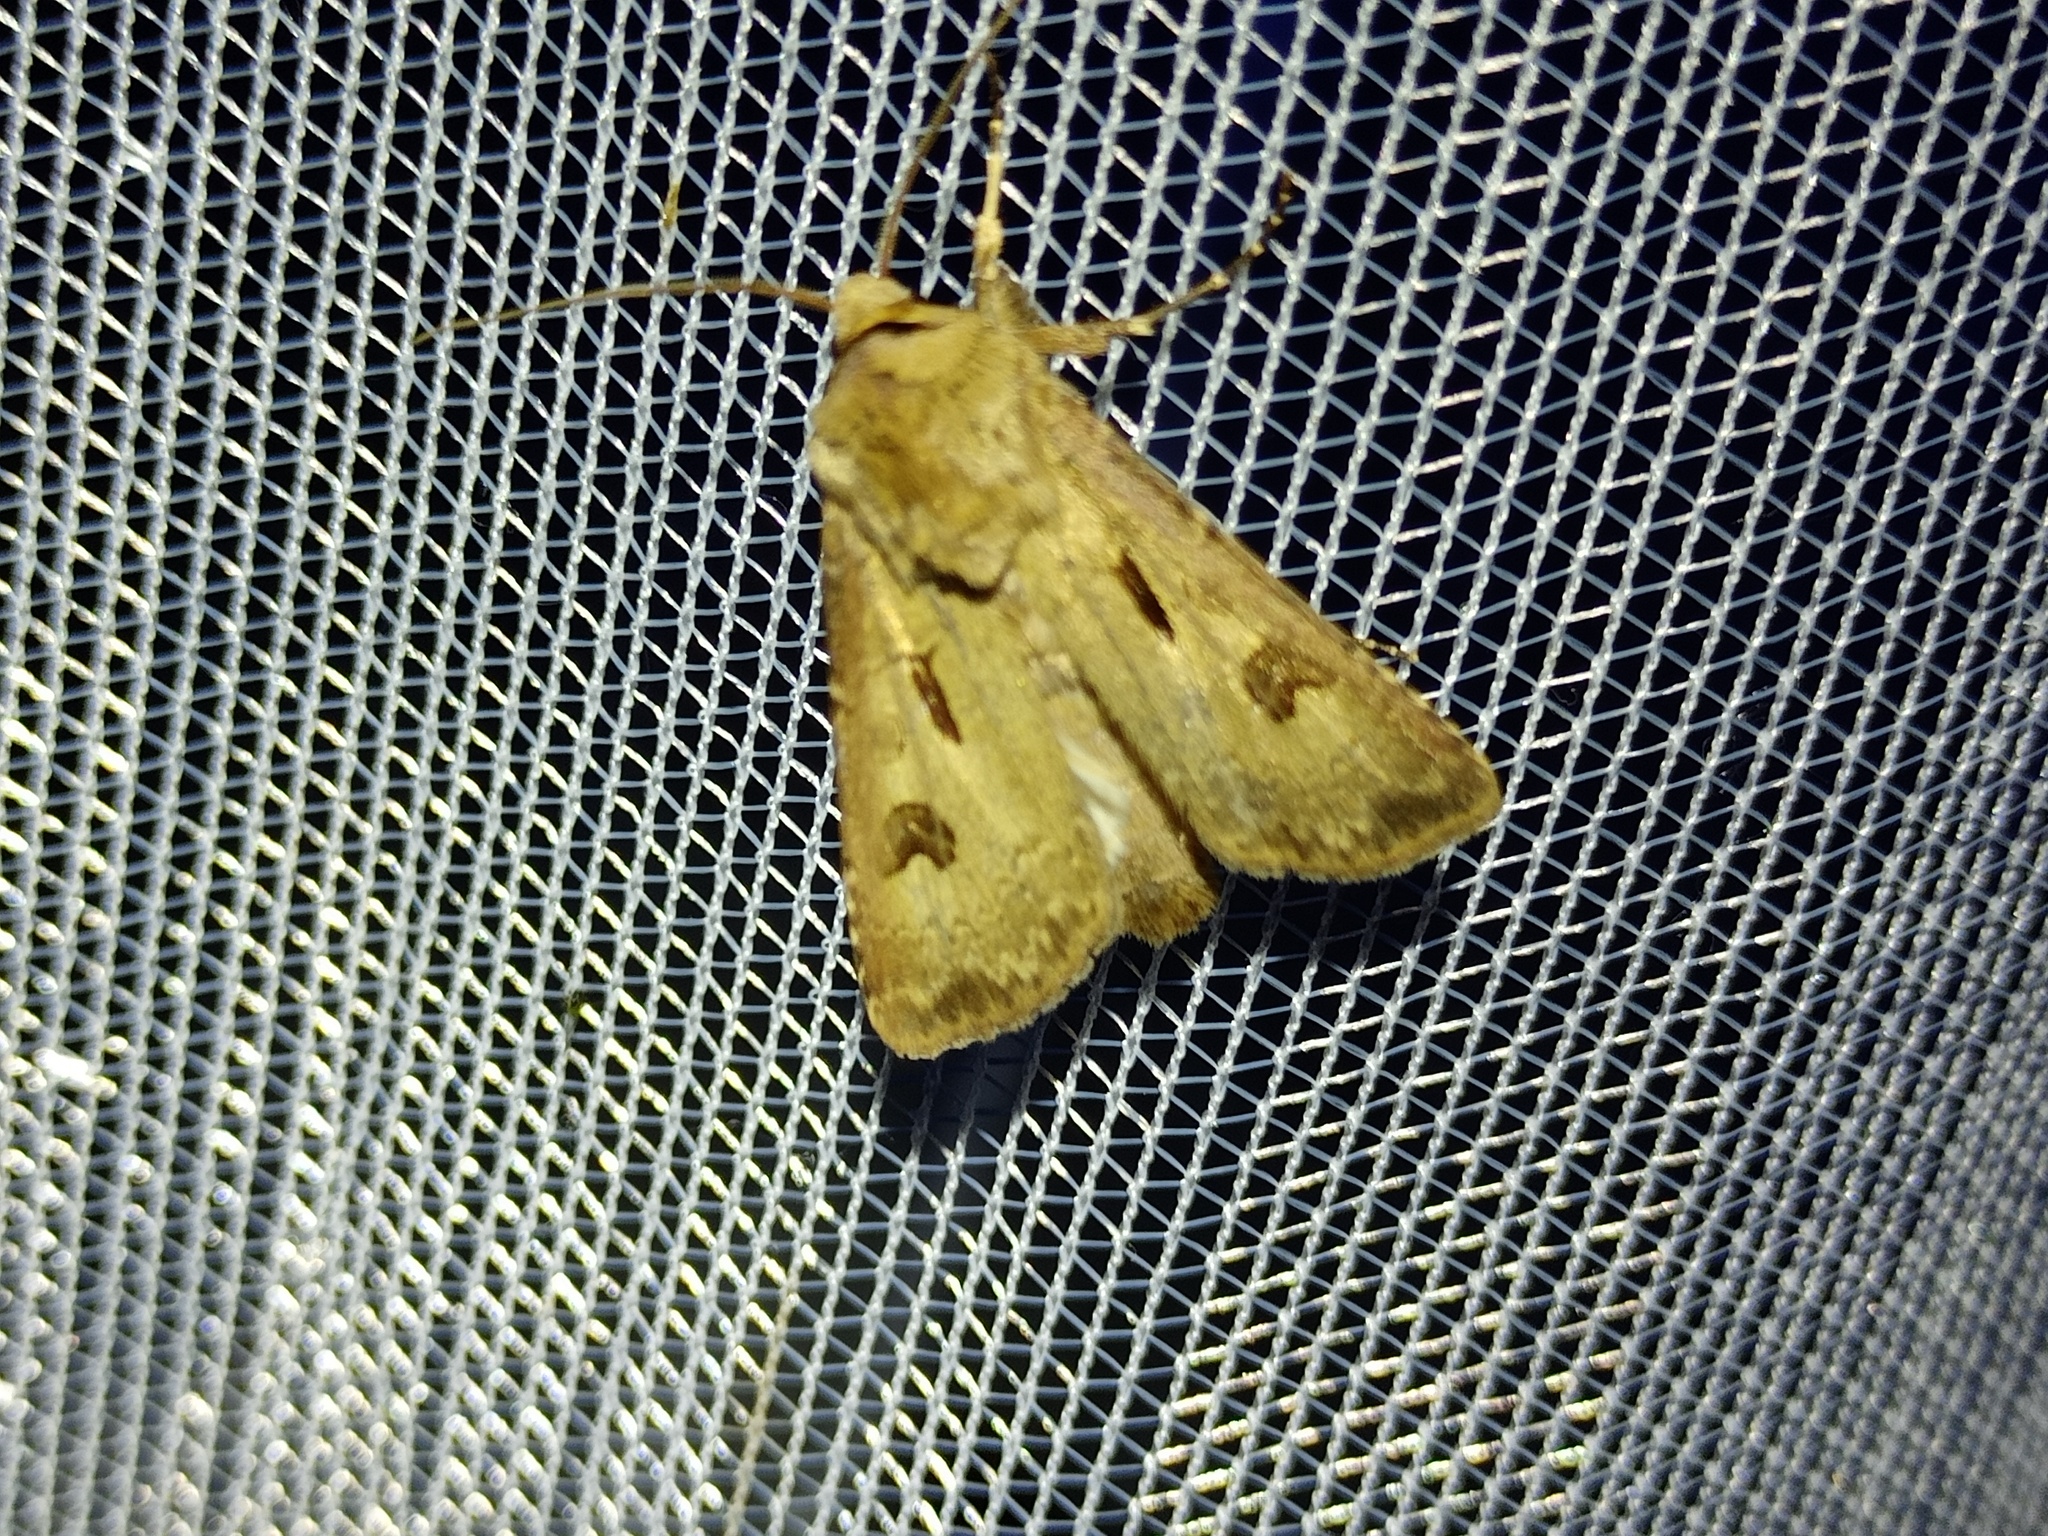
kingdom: Animalia
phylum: Arthropoda
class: Insecta
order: Lepidoptera
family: Noctuidae
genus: Agrotis
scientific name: Agrotis exclamationis
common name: Heart and dart
